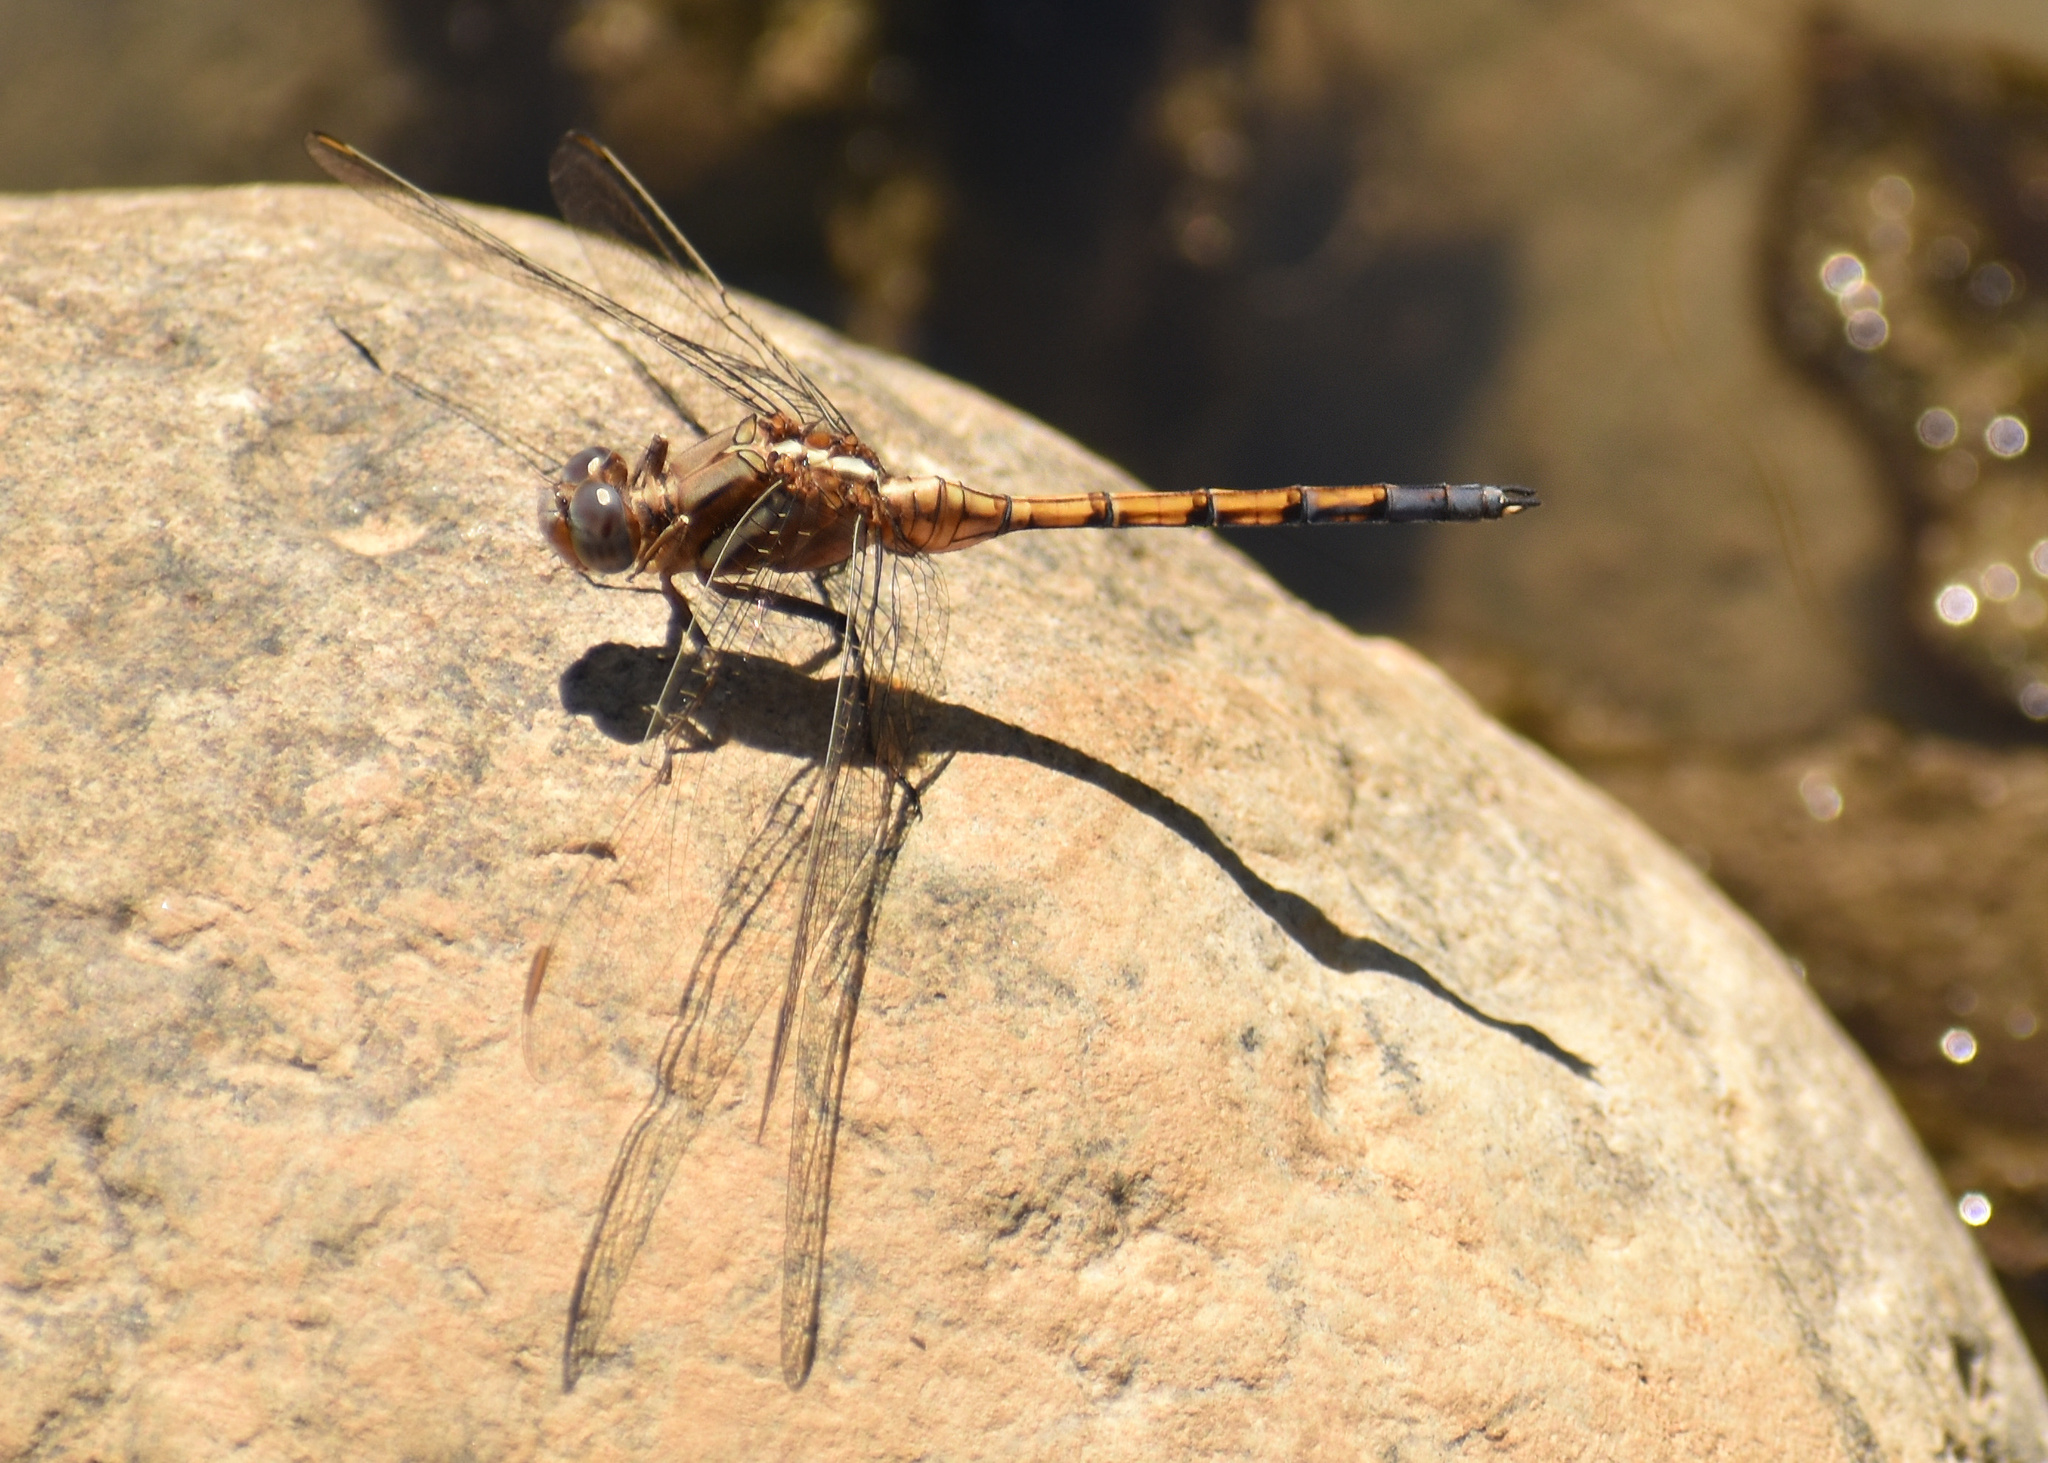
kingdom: Animalia
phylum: Arthropoda
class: Insecta
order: Odonata
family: Libellulidae
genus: Orthetrum
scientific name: Orthetrum chrysostigma
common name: Epaulet skimmer
